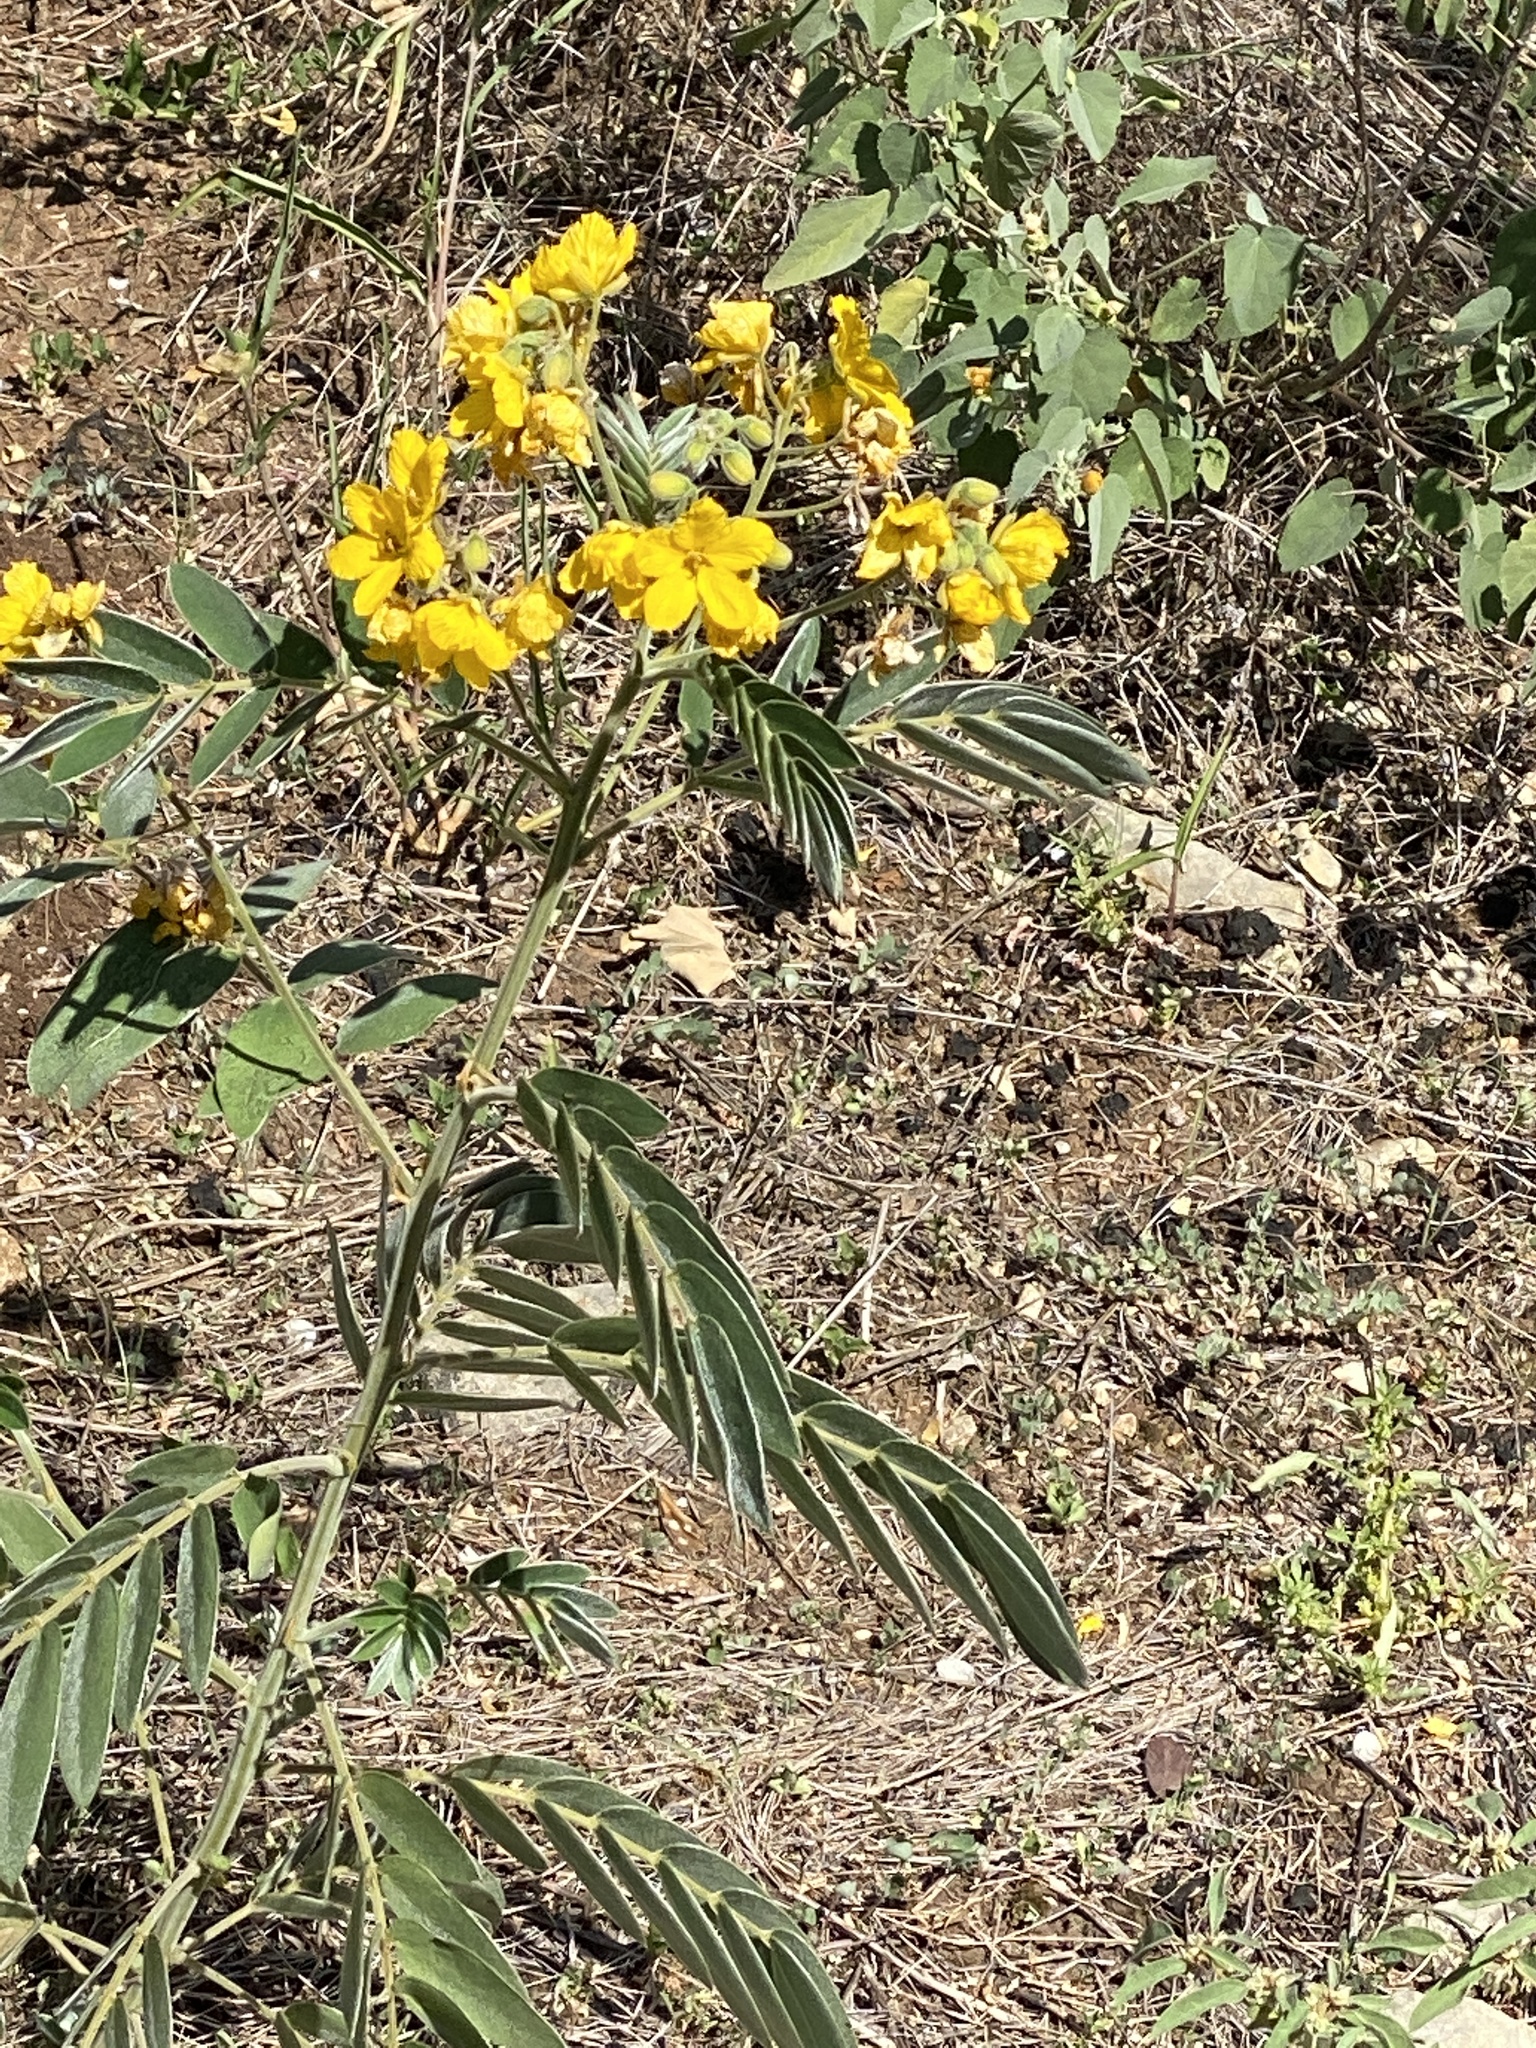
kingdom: Plantae
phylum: Tracheophyta
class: Magnoliopsida
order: Fabales
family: Fabaceae
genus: Senna
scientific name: Senna lindheimeriana
